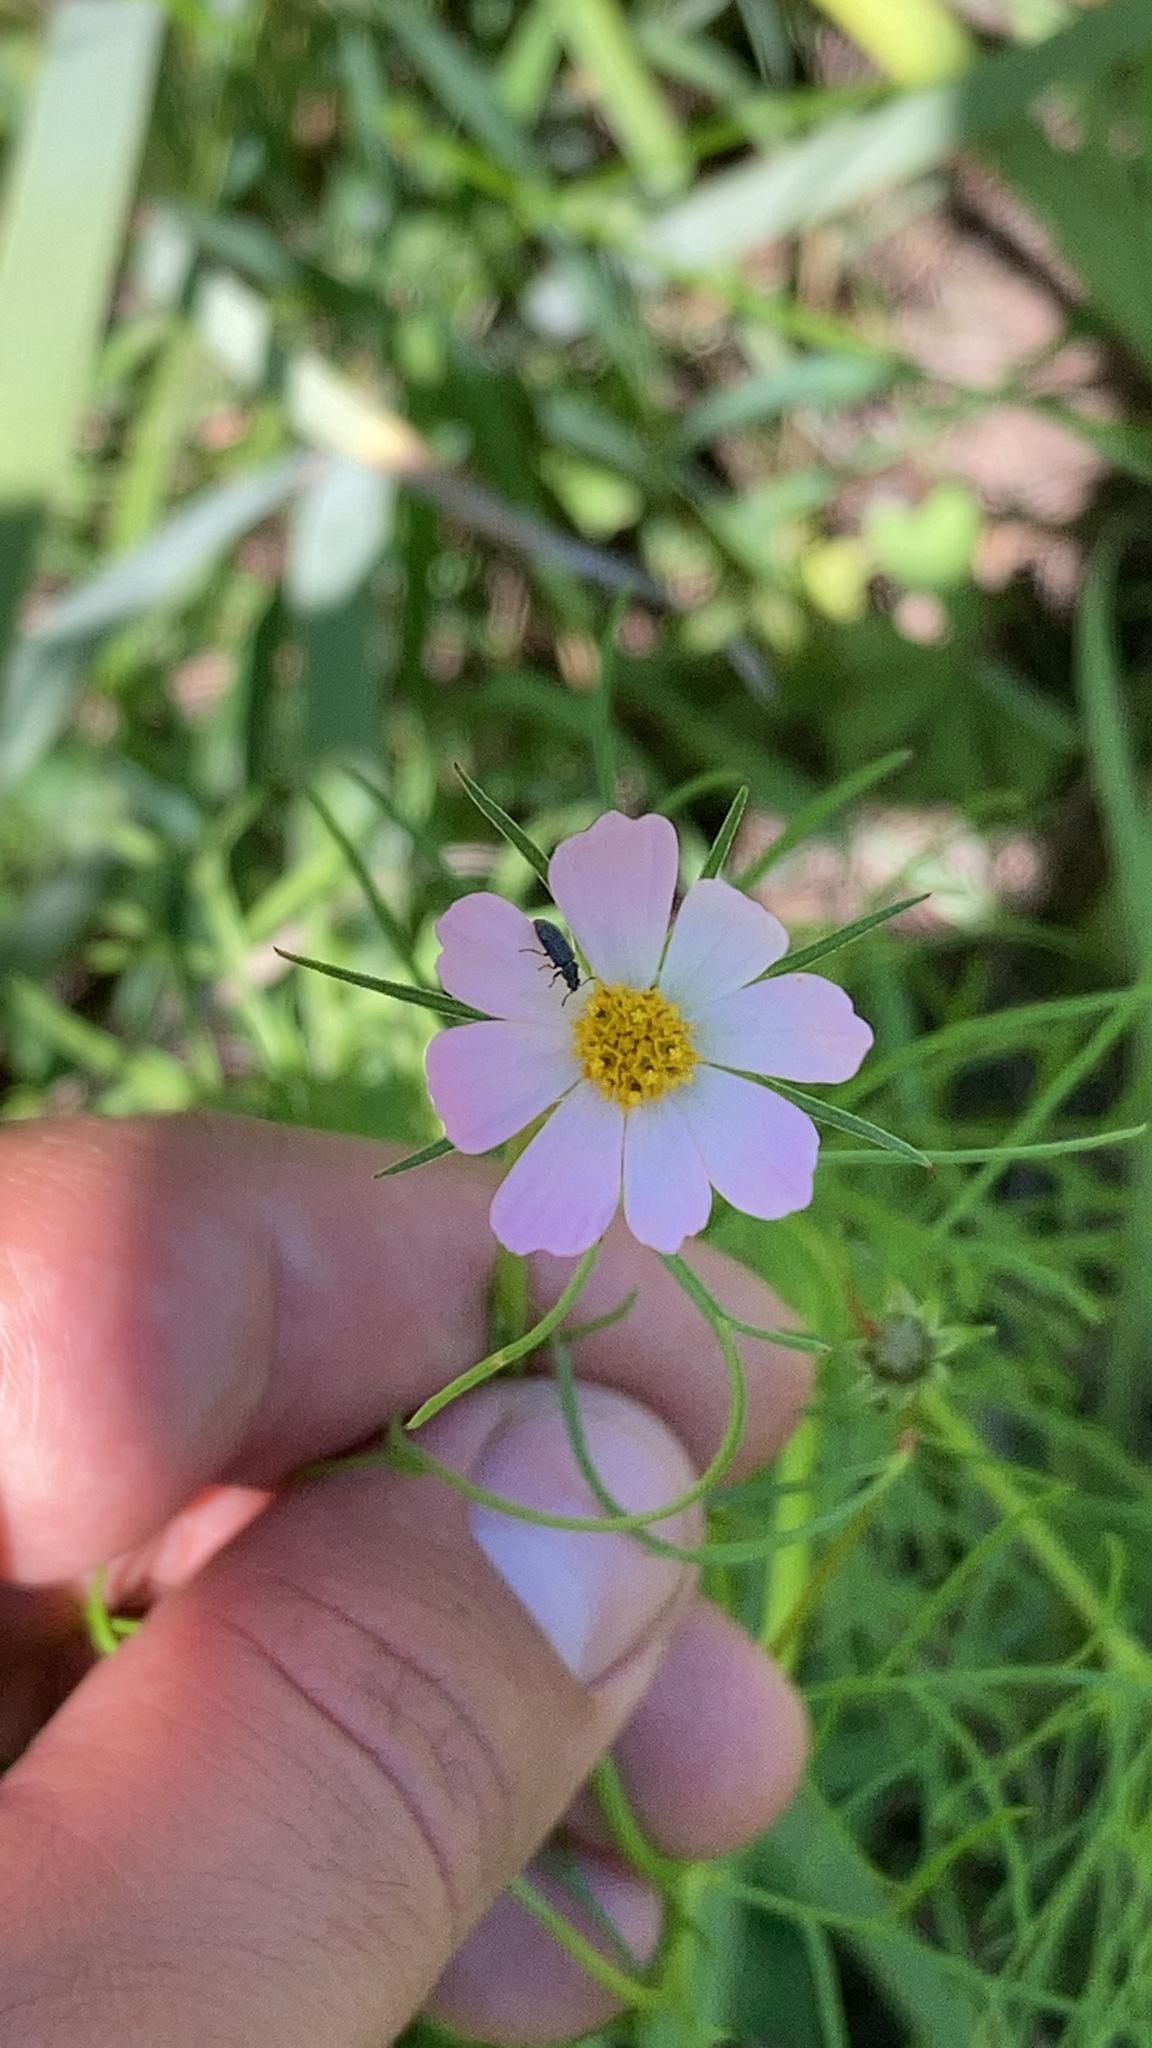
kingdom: Plantae
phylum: Tracheophyta
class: Magnoliopsida
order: Asterales
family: Asteraceae
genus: Cosmos
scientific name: Cosmos parviflorus
